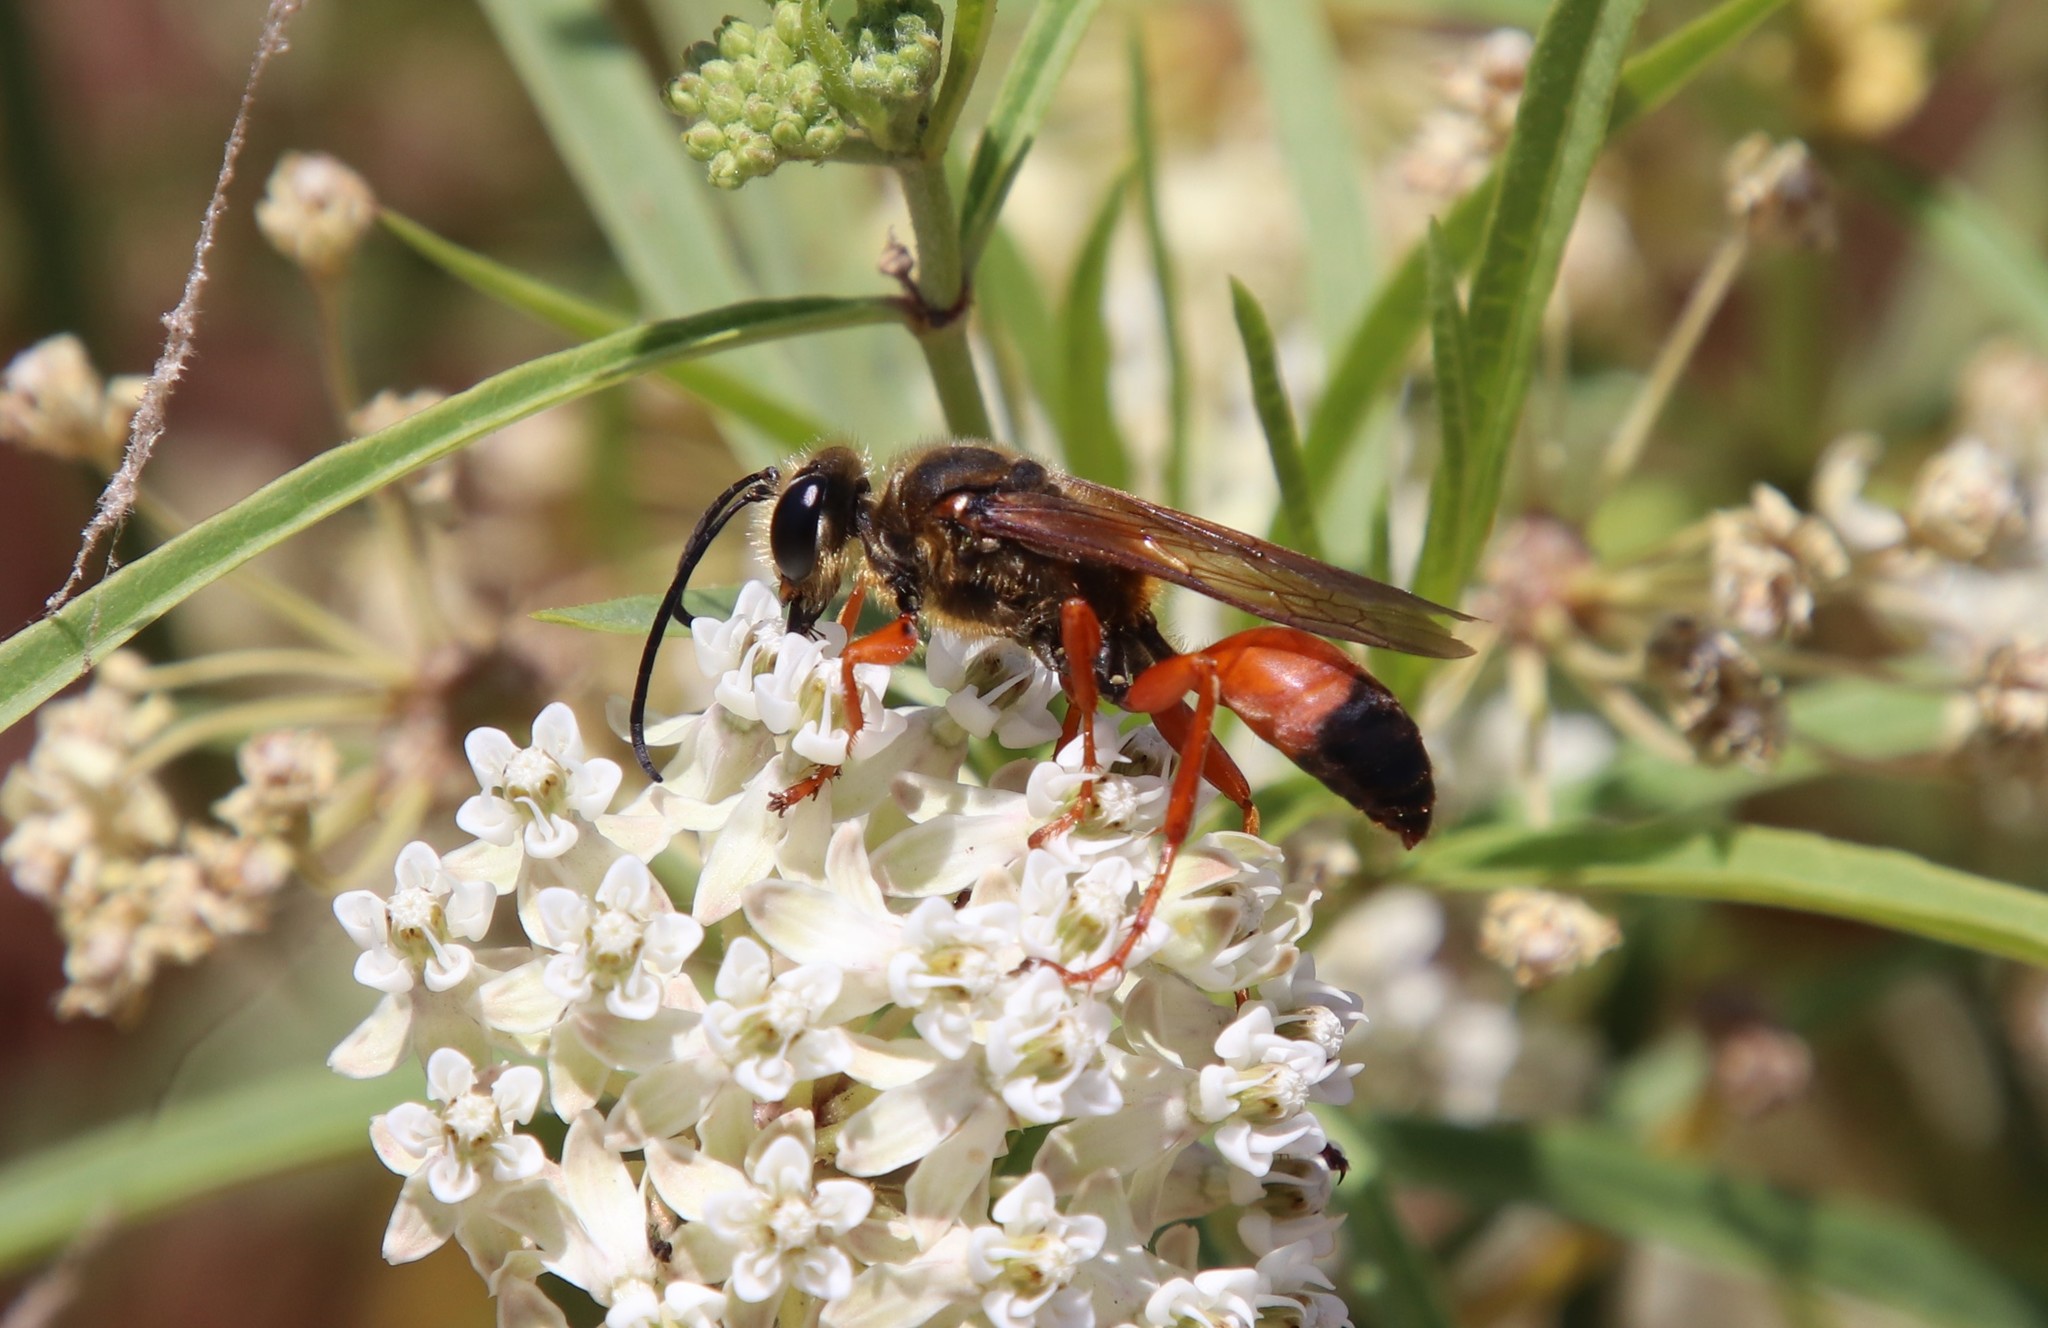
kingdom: Animalia
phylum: Arthropoda
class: Insecta
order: Hymenoptera
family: Sphecidae
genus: Sphex
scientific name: Sphex ichneumoneus
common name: Great golden digger wasp
